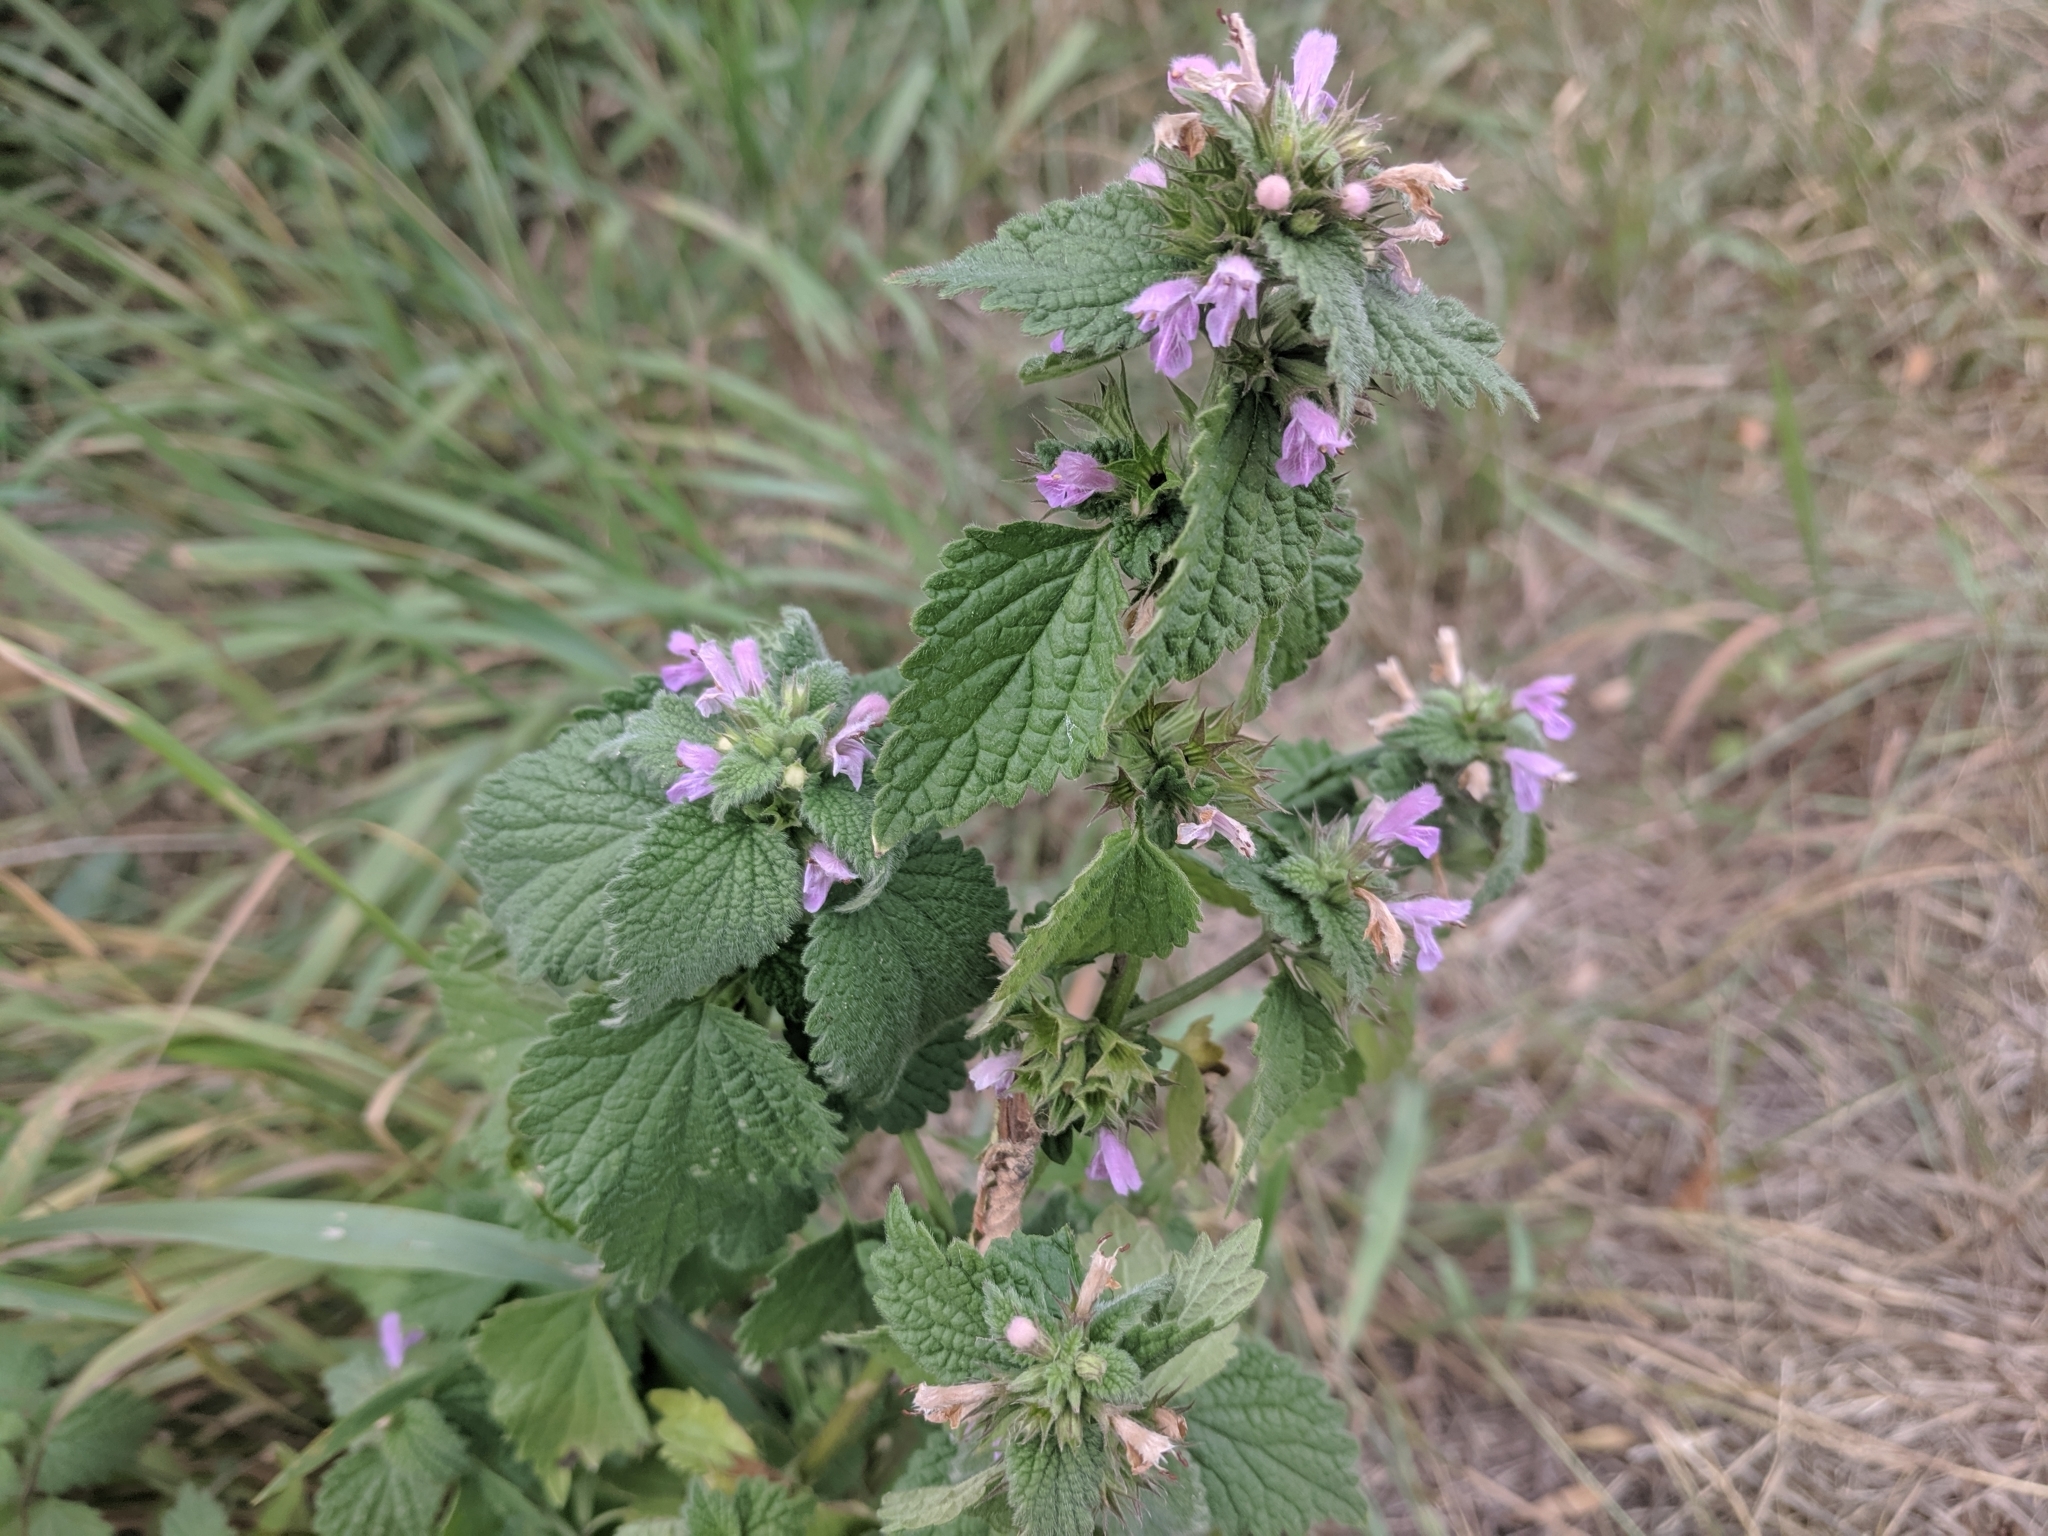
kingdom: Plantae
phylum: Tracheophyta
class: Magnoliopsida
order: Lamiales
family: Lamiaceae
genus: Ballota
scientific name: Ballota nigra
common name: Black horehound
